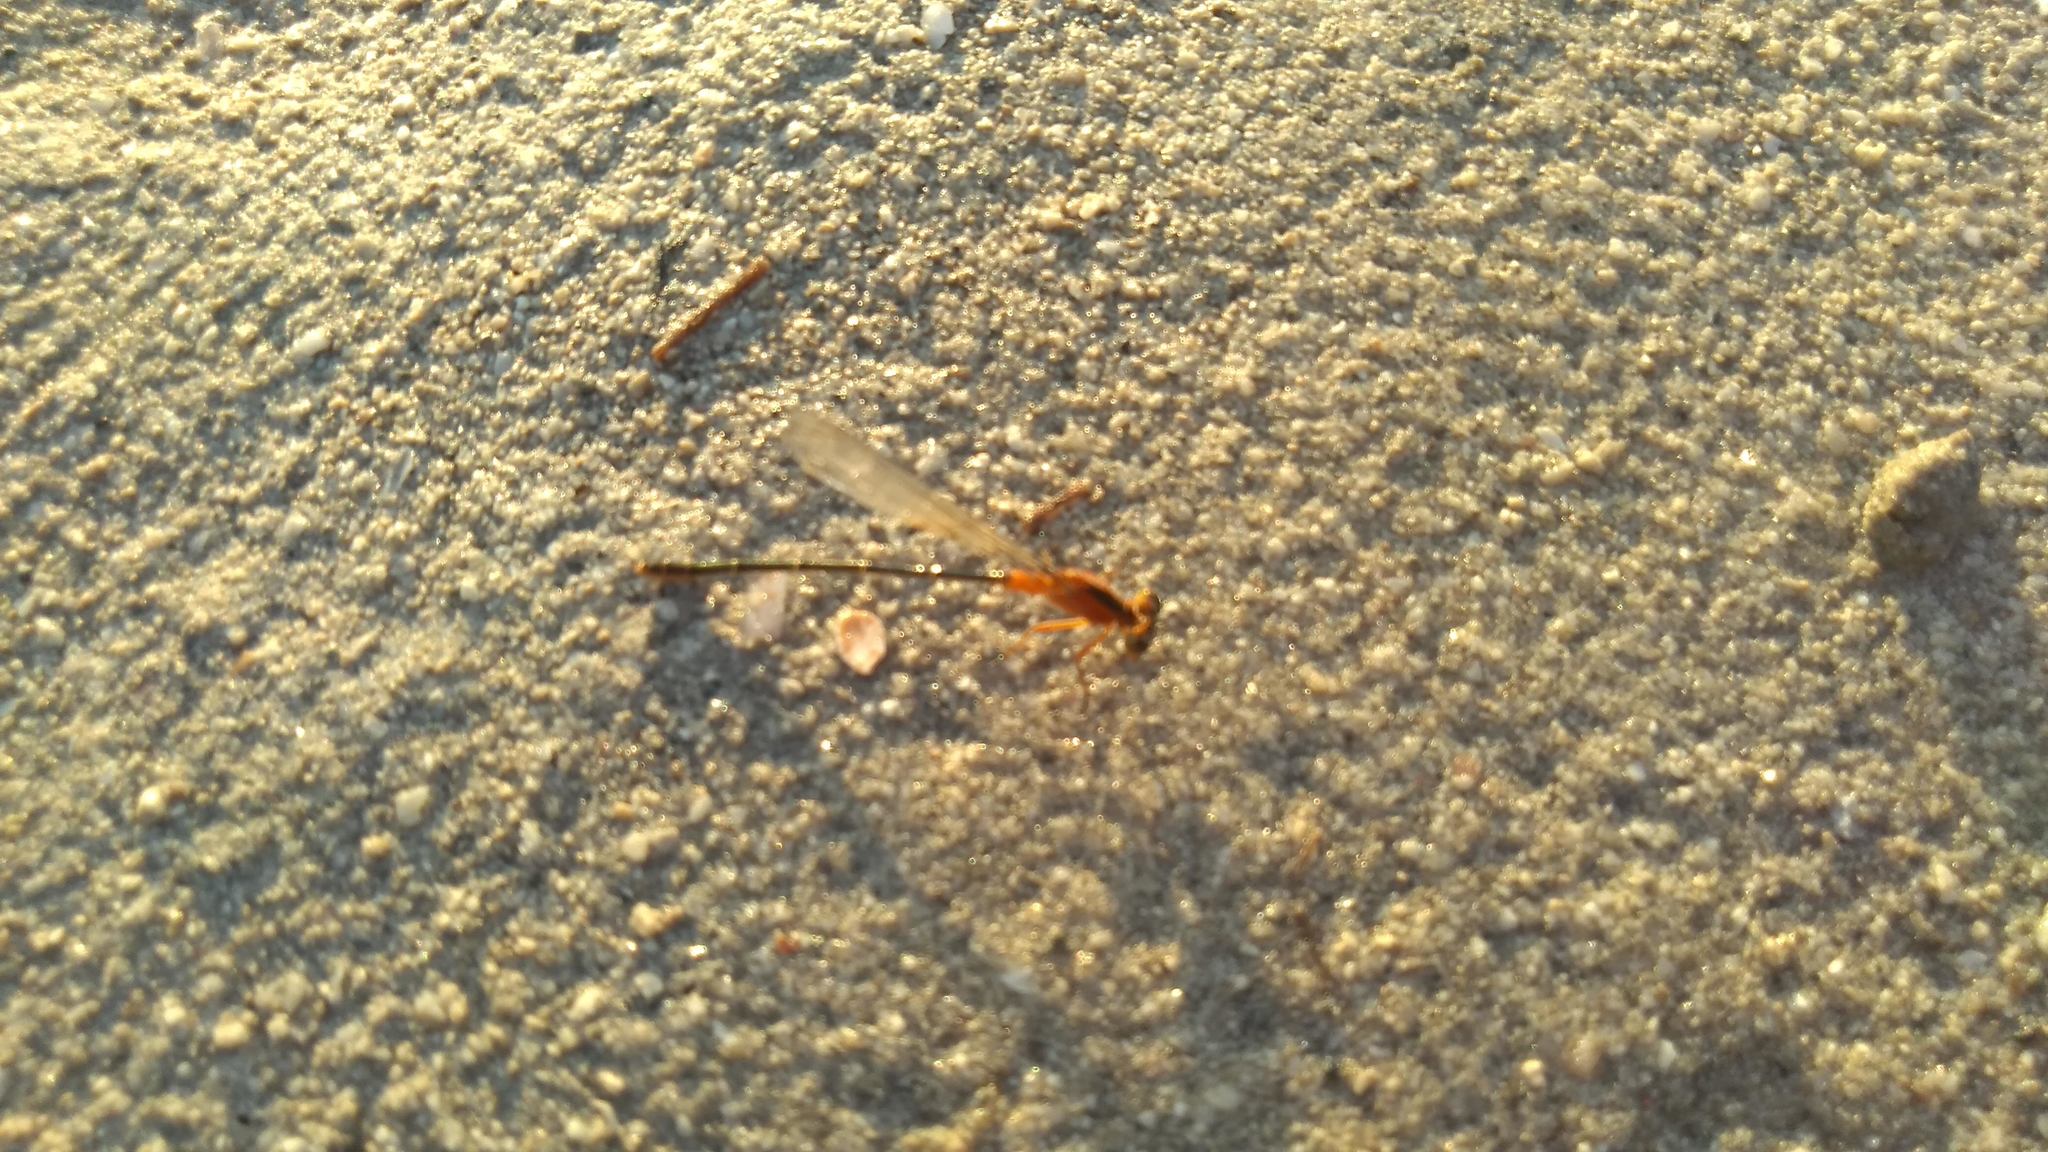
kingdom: Animalia
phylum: Arthropoda
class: Insecta
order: Odonata
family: Coenagrionidae
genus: Ischnura
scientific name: Ischnura ramburii
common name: Rambur's forktail
